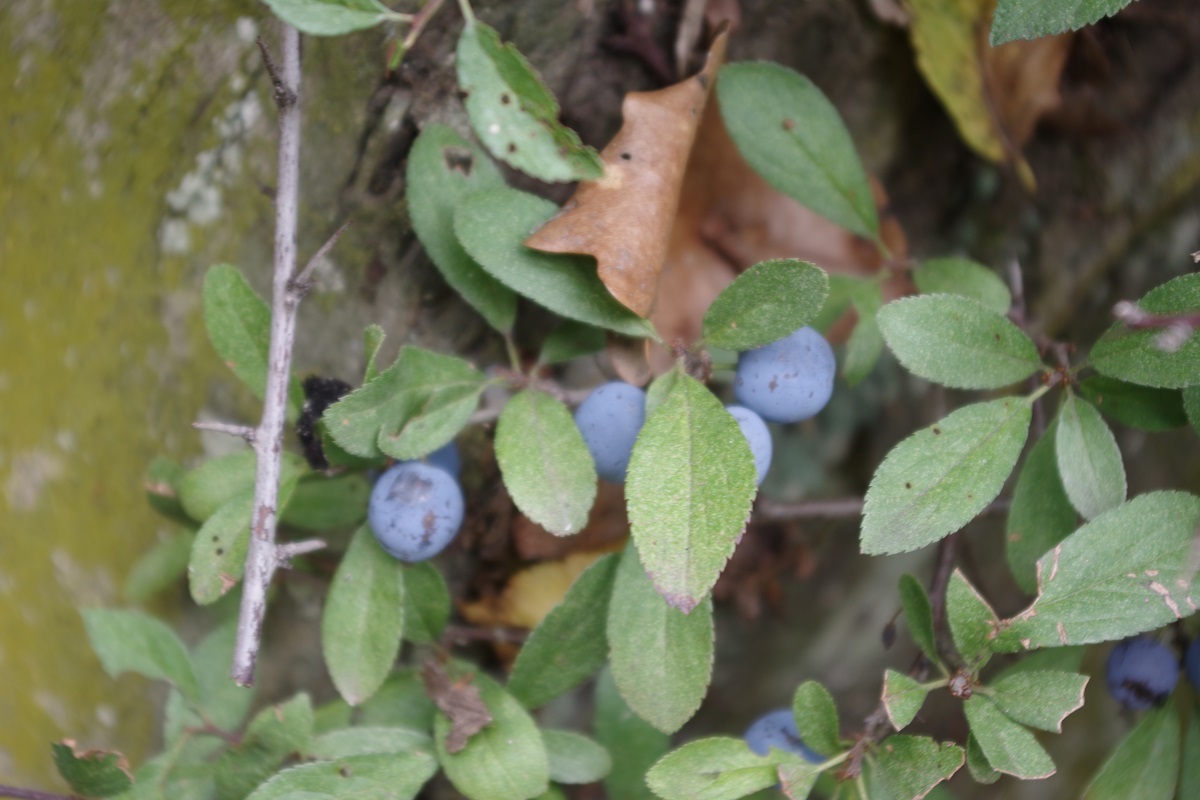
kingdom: Plantae
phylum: Tracheophyta
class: Magnoliopsida
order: Rosales
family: Rosaceae
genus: Prunus
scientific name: Prunus spinosa
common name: Blackthorn
